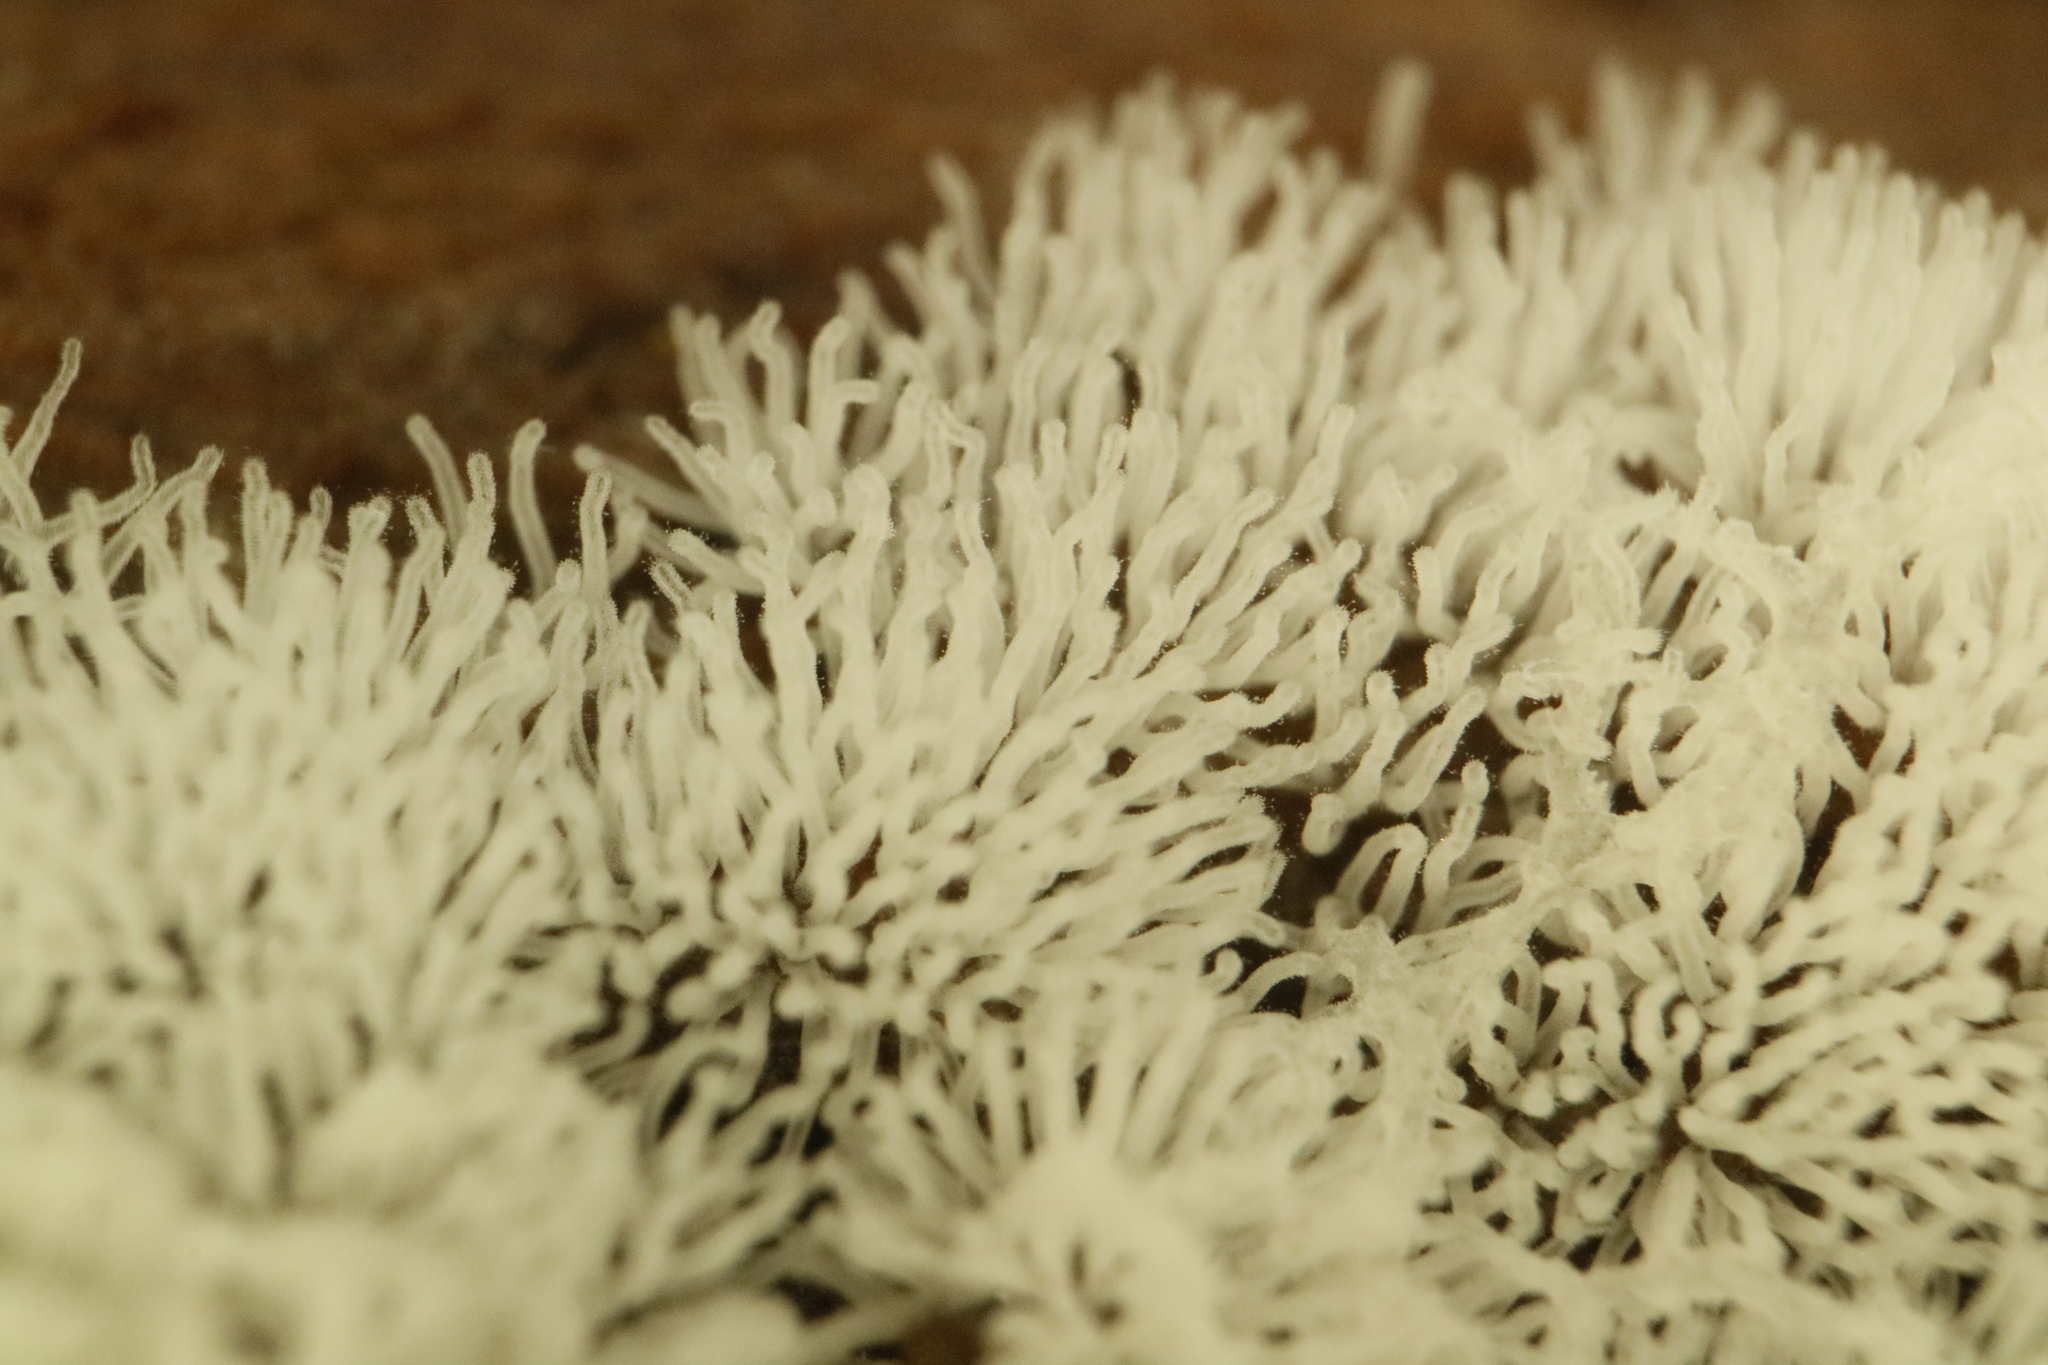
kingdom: Protozoa
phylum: Mycetozoa
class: Protosteliomycetes
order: Ceratiomyxales
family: Ceratiomyxaceae
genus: Ceratiomyxa
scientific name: Ceratiomyxa fruticulosa
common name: Honeycomb coral slime mold
